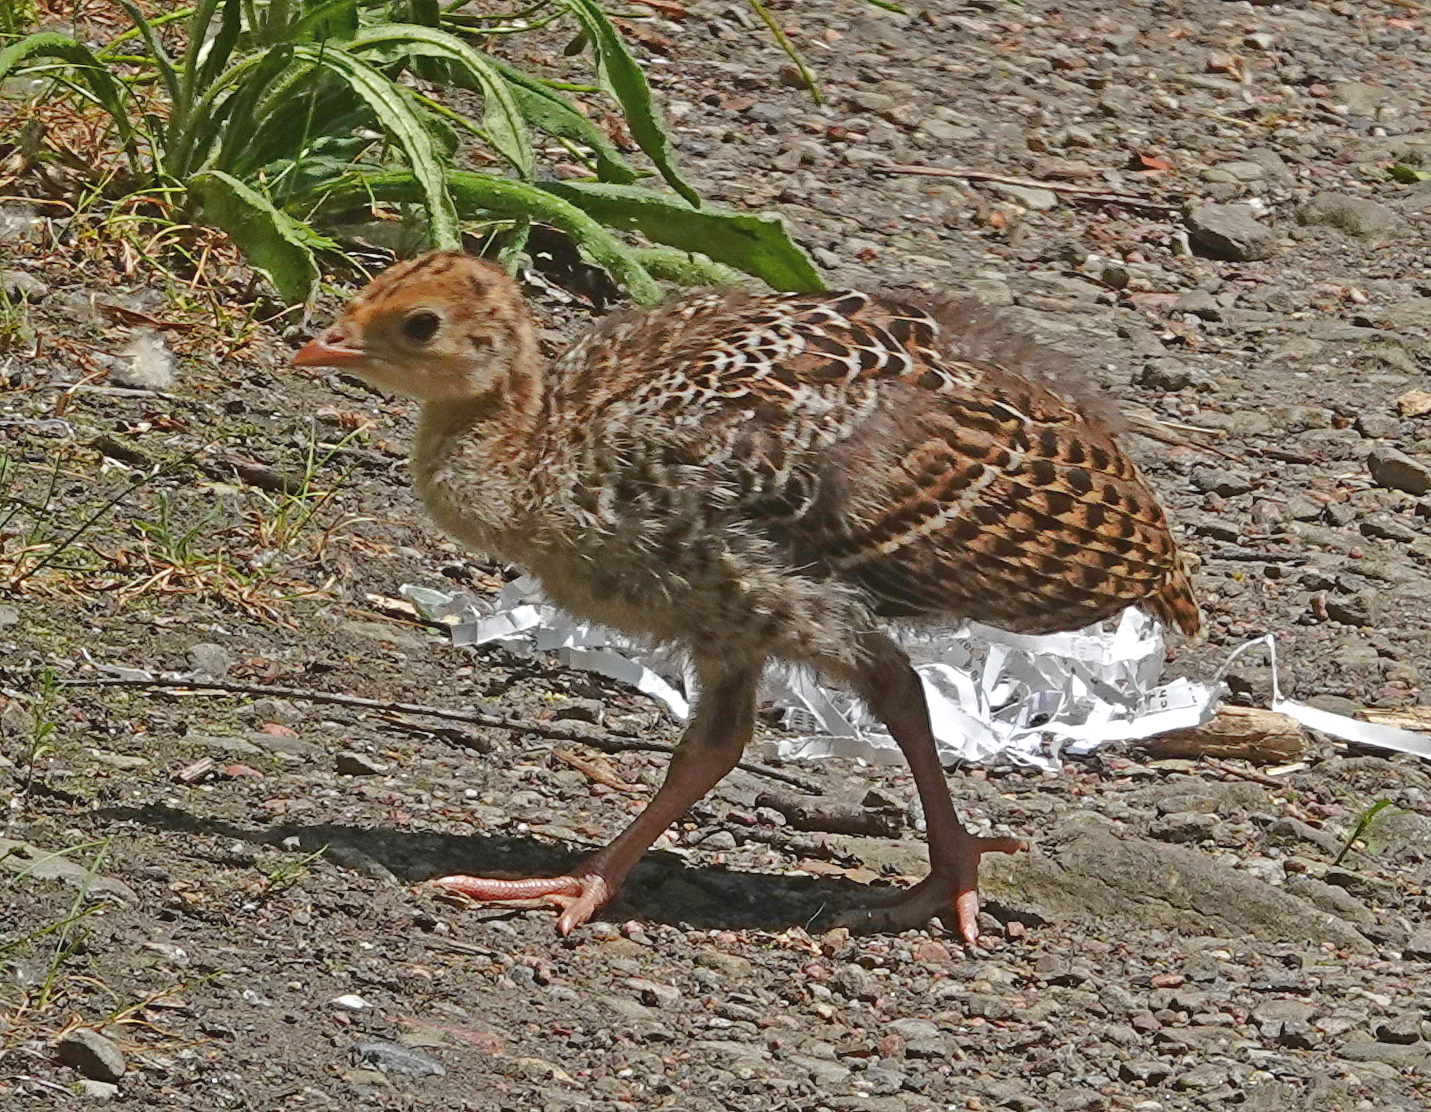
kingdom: Animalia
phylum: Chordata
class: Aves
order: Galliformes
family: Phasianidae
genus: Meleagris
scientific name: Meleagris gallopavo
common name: Wild turkey
